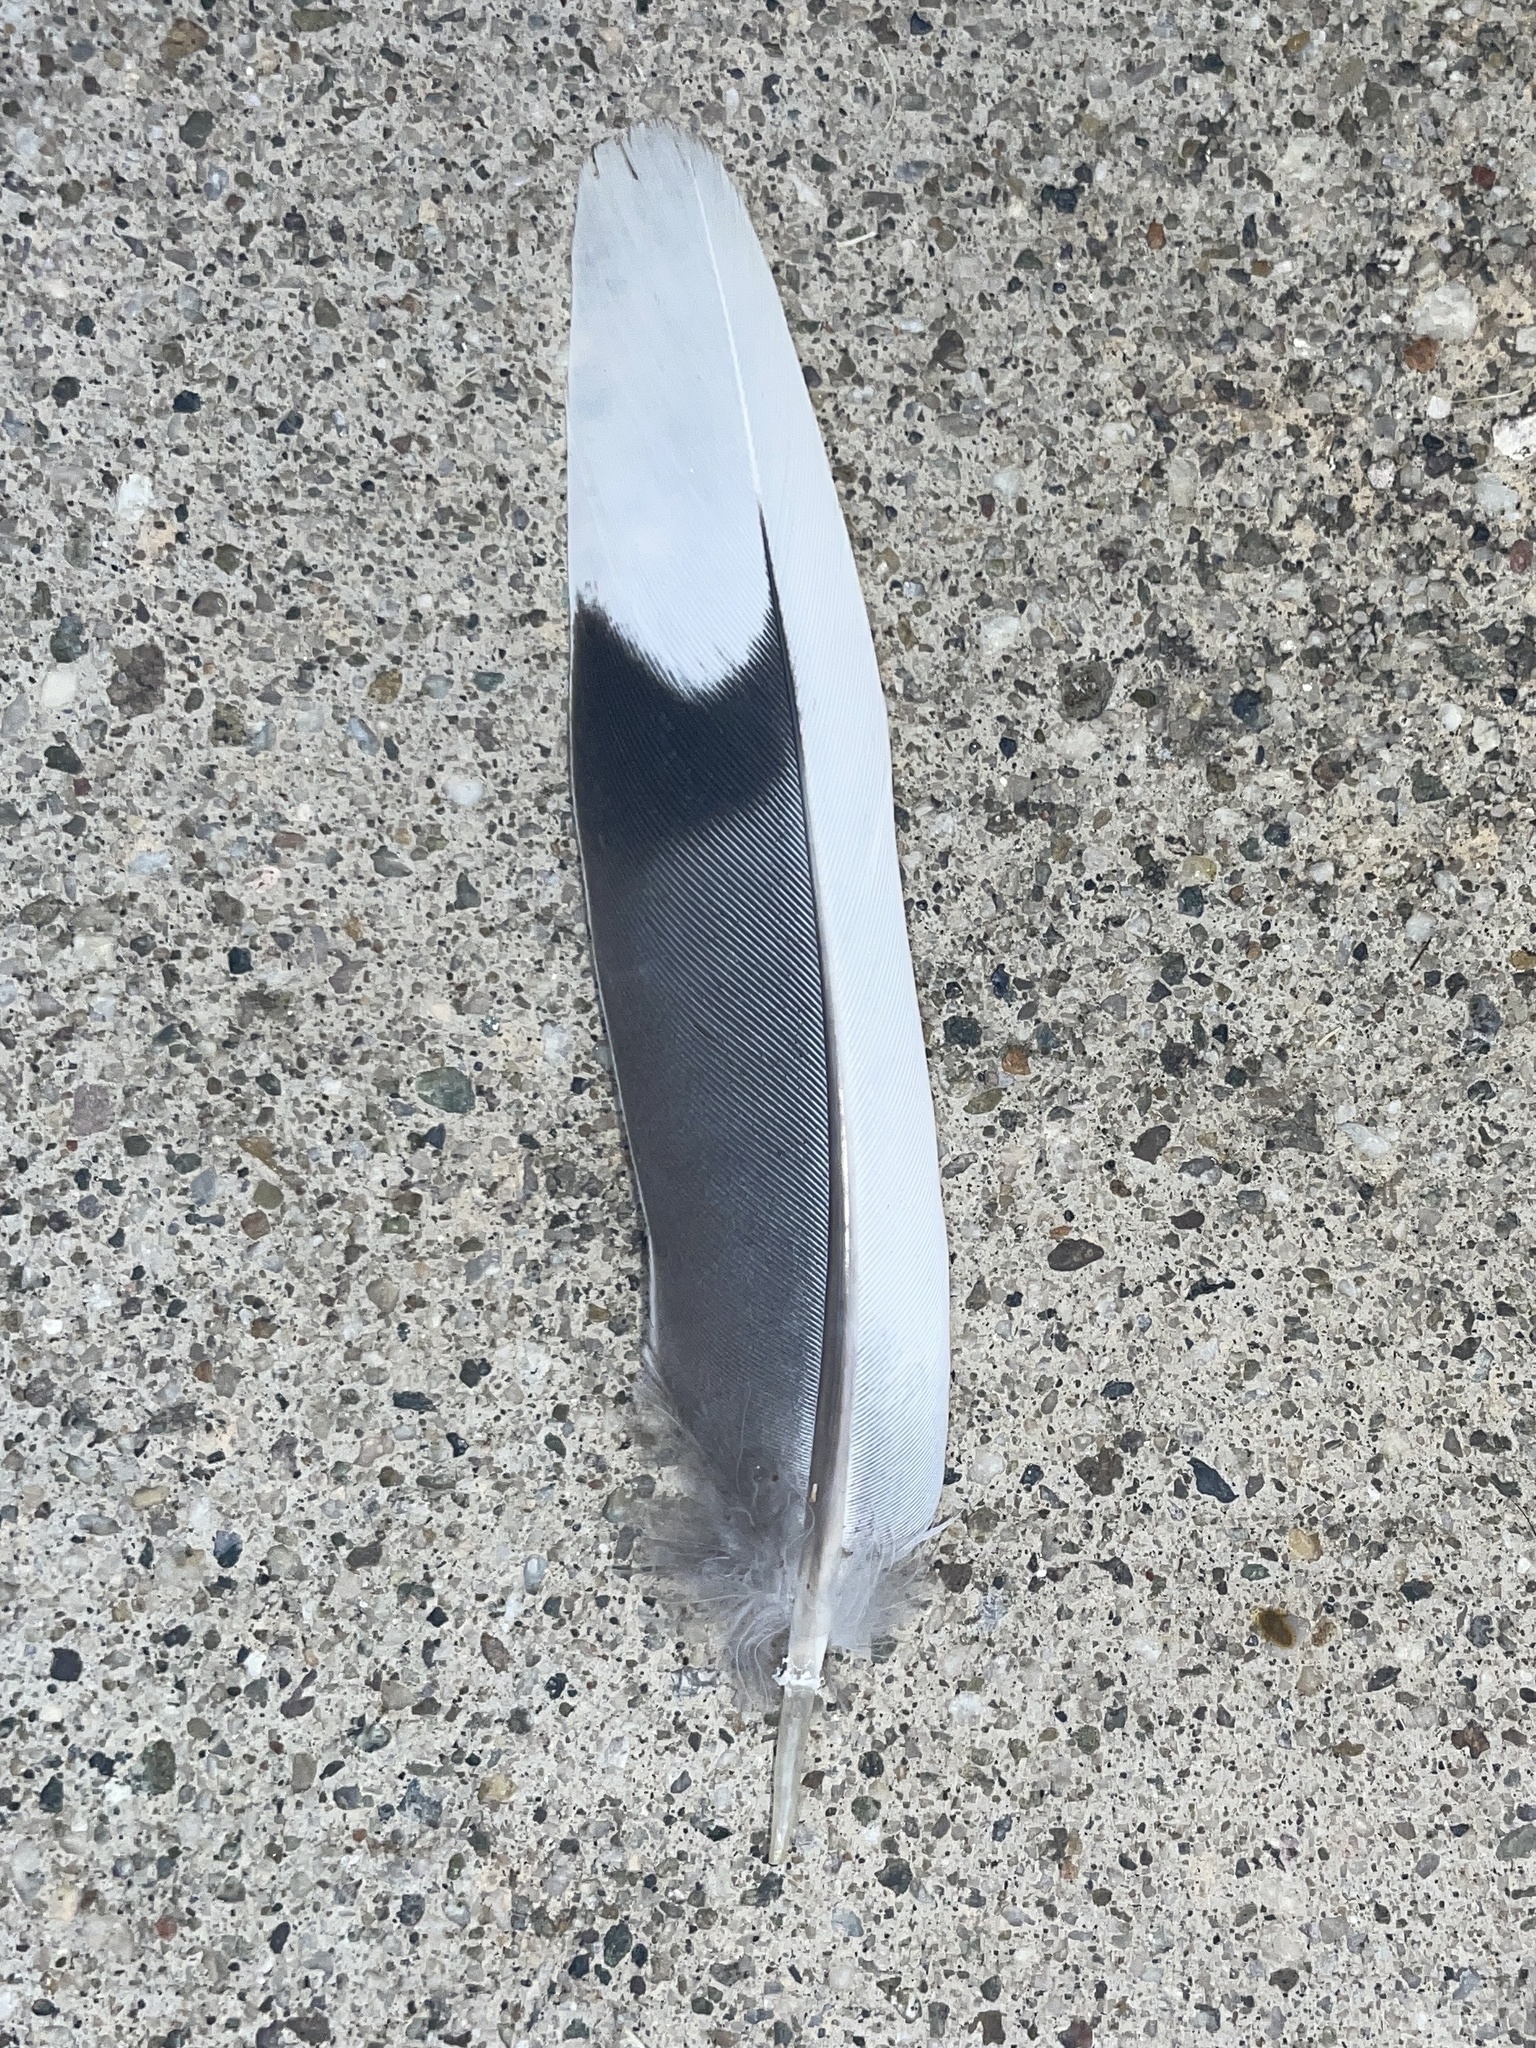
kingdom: Animalia
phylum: Chordata
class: Aves
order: Columbiformes
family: Columbidae
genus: Zenaida
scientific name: Zenaida macroura
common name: Mourning dove
